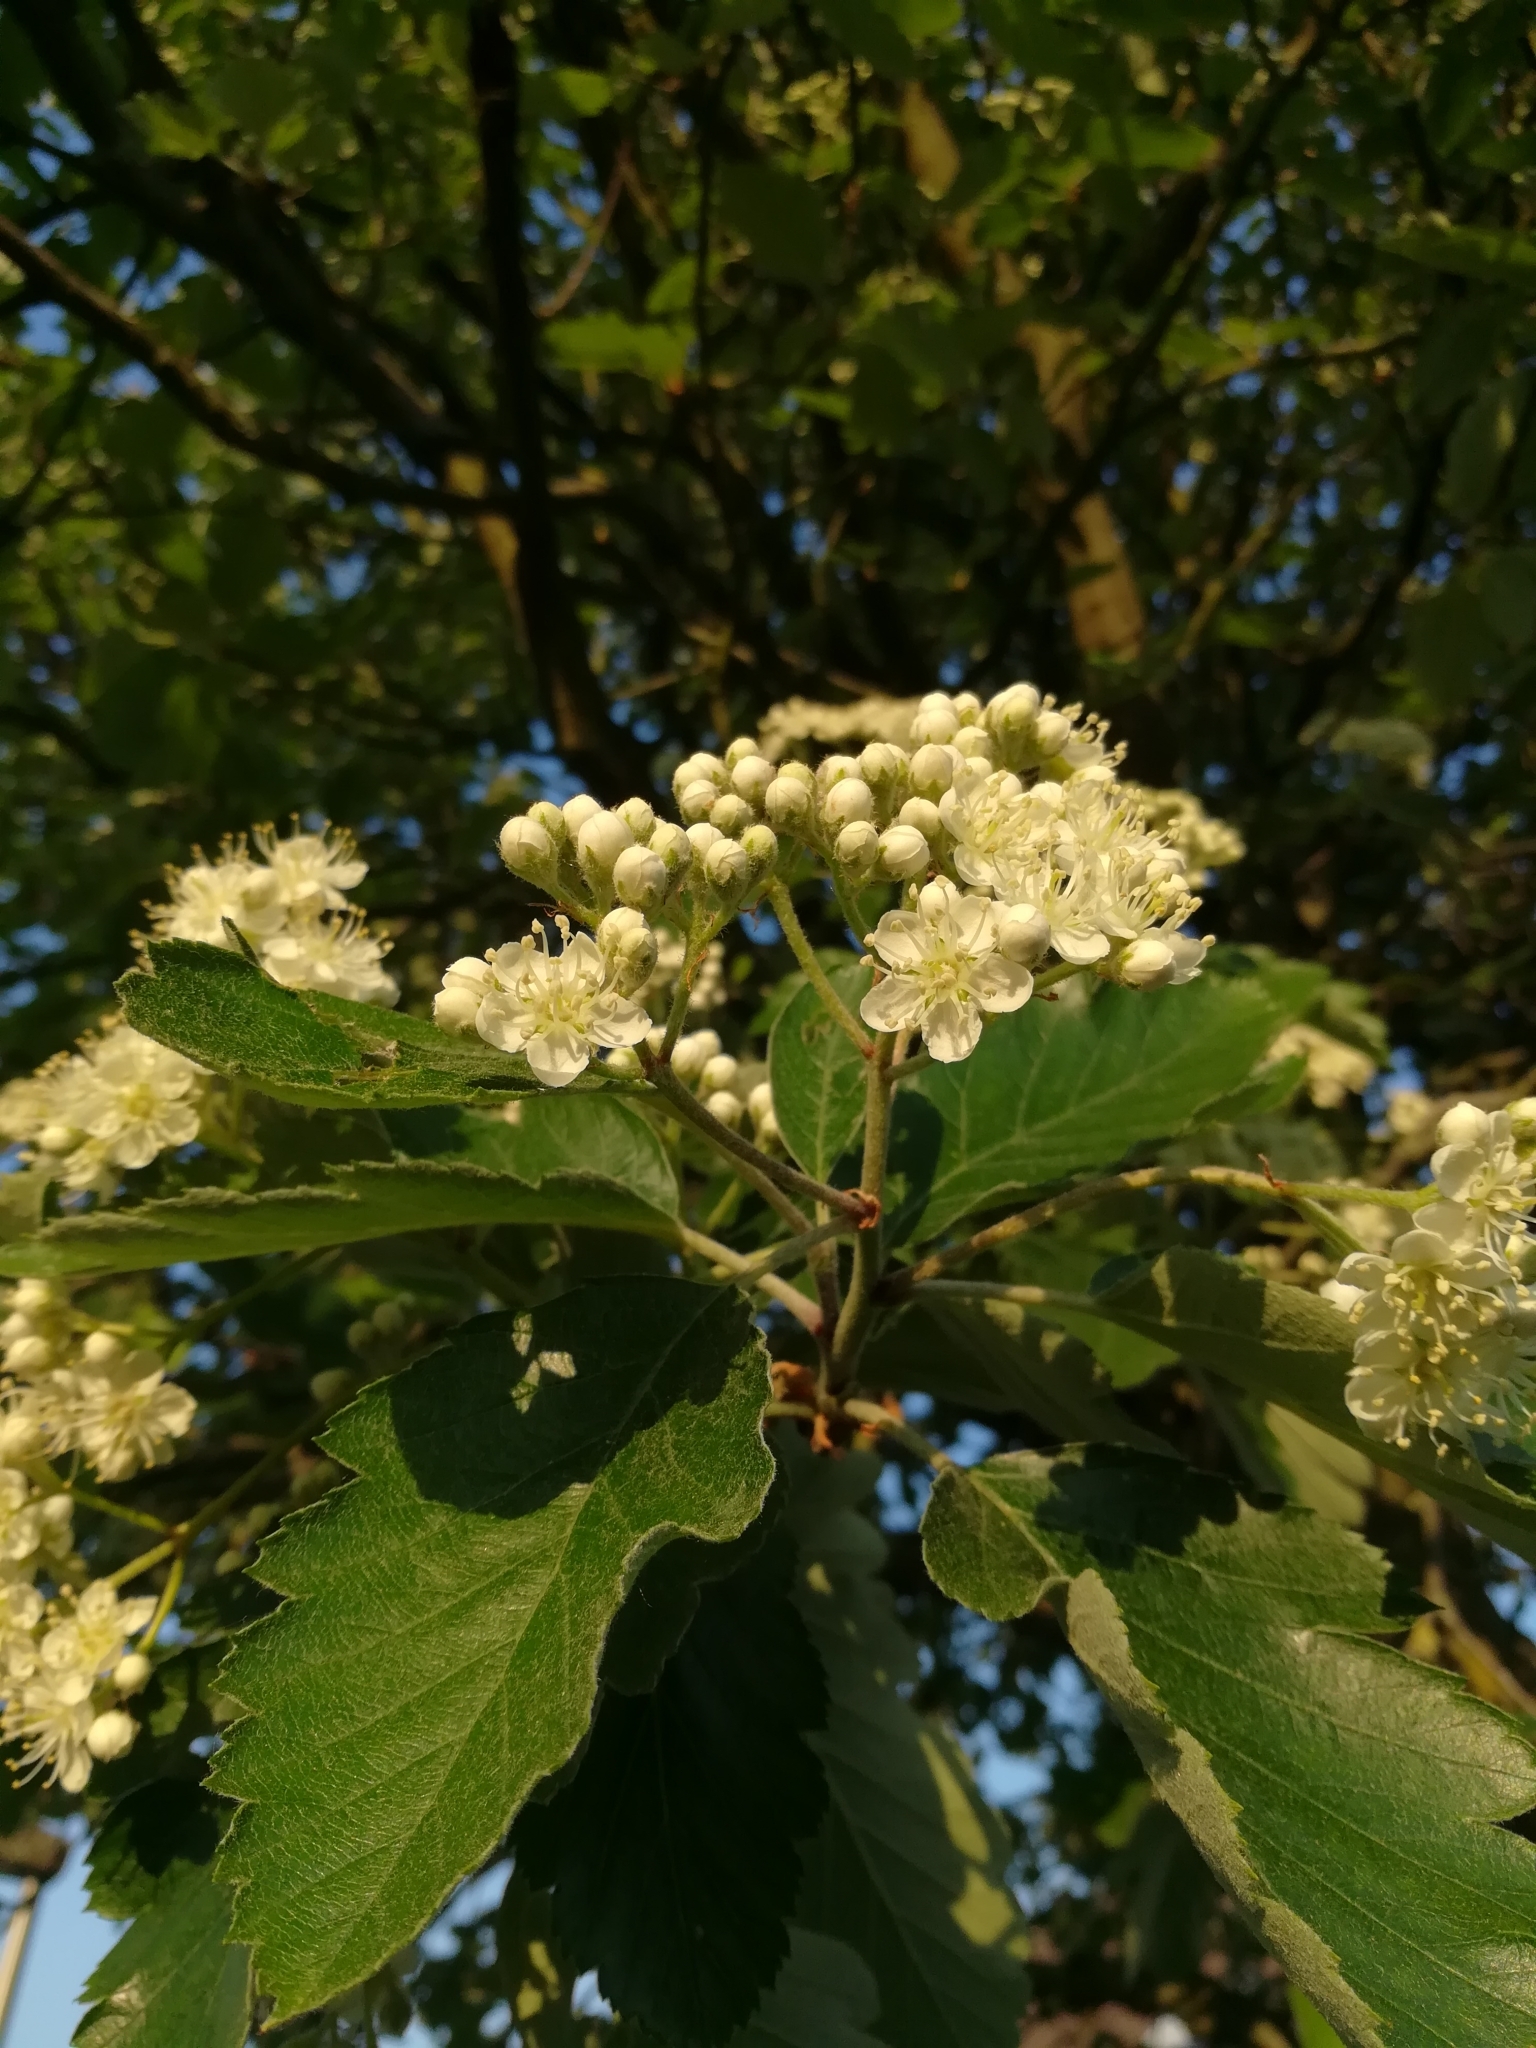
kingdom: Plantae
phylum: Tracheophyta
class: Magnoliopsida
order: Rosales
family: Rosaceae
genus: Scandosorbus
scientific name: Scandosorbus intermedia
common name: Swedish whitebeam
